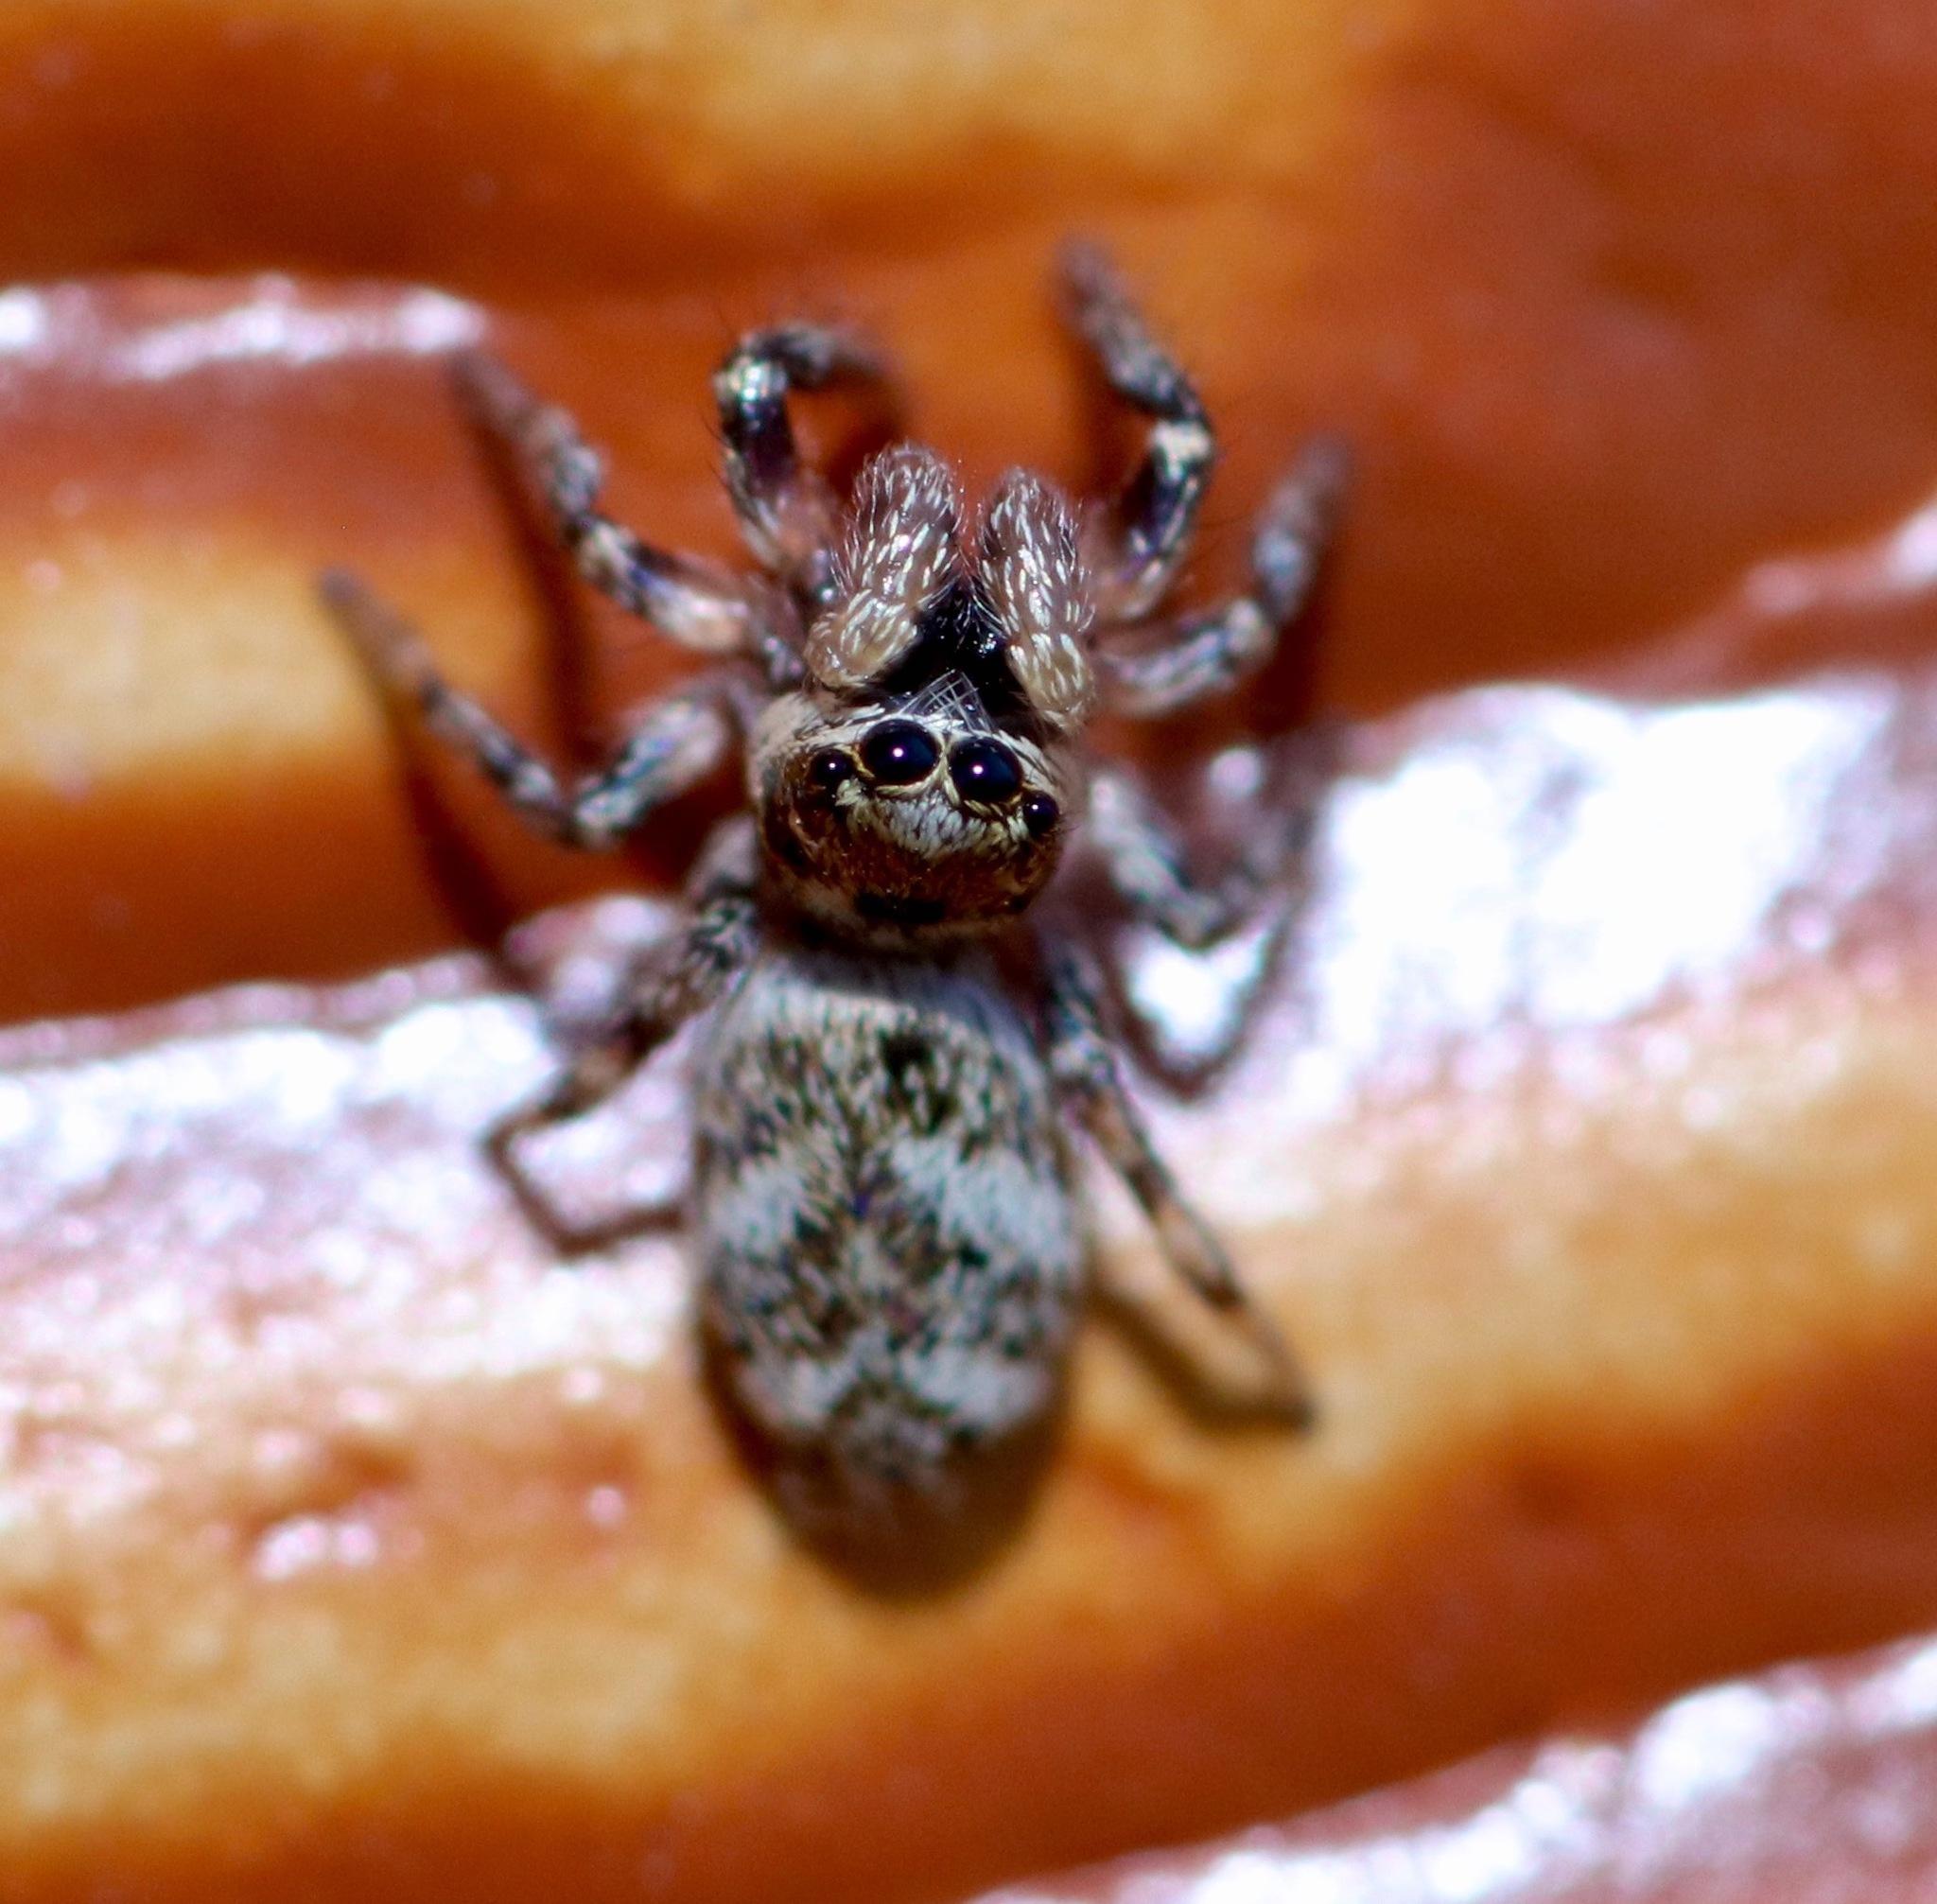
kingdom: Animalia
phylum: Arthropoda
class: Arachnida
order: Araneae
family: Salticidae
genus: Salticus
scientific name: Salticus scenicus
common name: Zebra jumper
